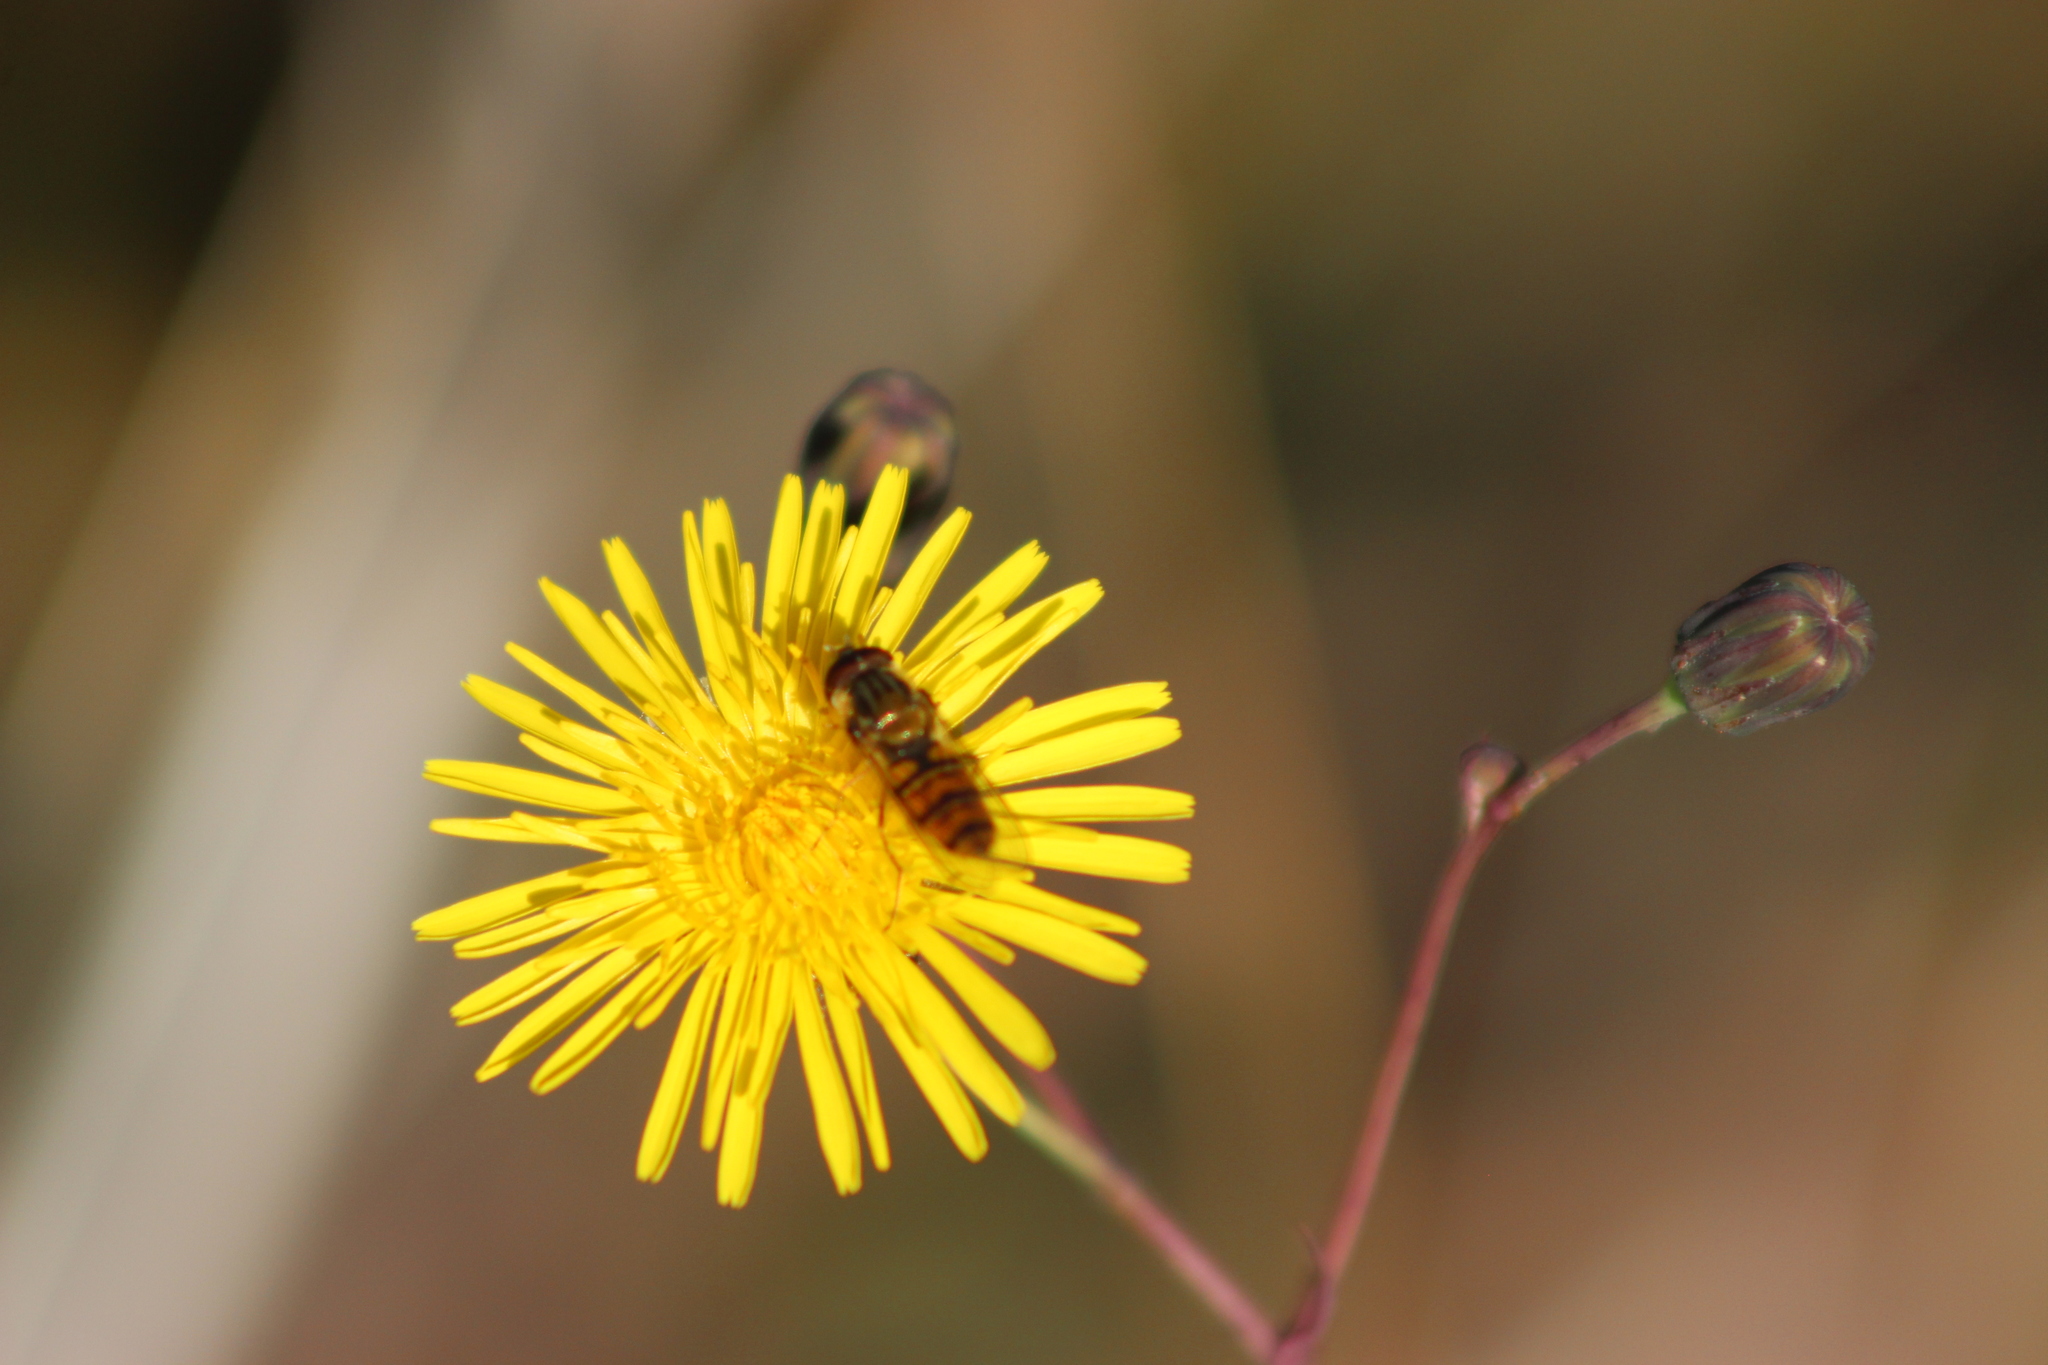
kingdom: Animalia
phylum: Arthropoda
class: Insecta
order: Diptera
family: Syrphidae
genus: Episyrphus
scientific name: Episyrphus balteatus
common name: Marmalade hoverfly
